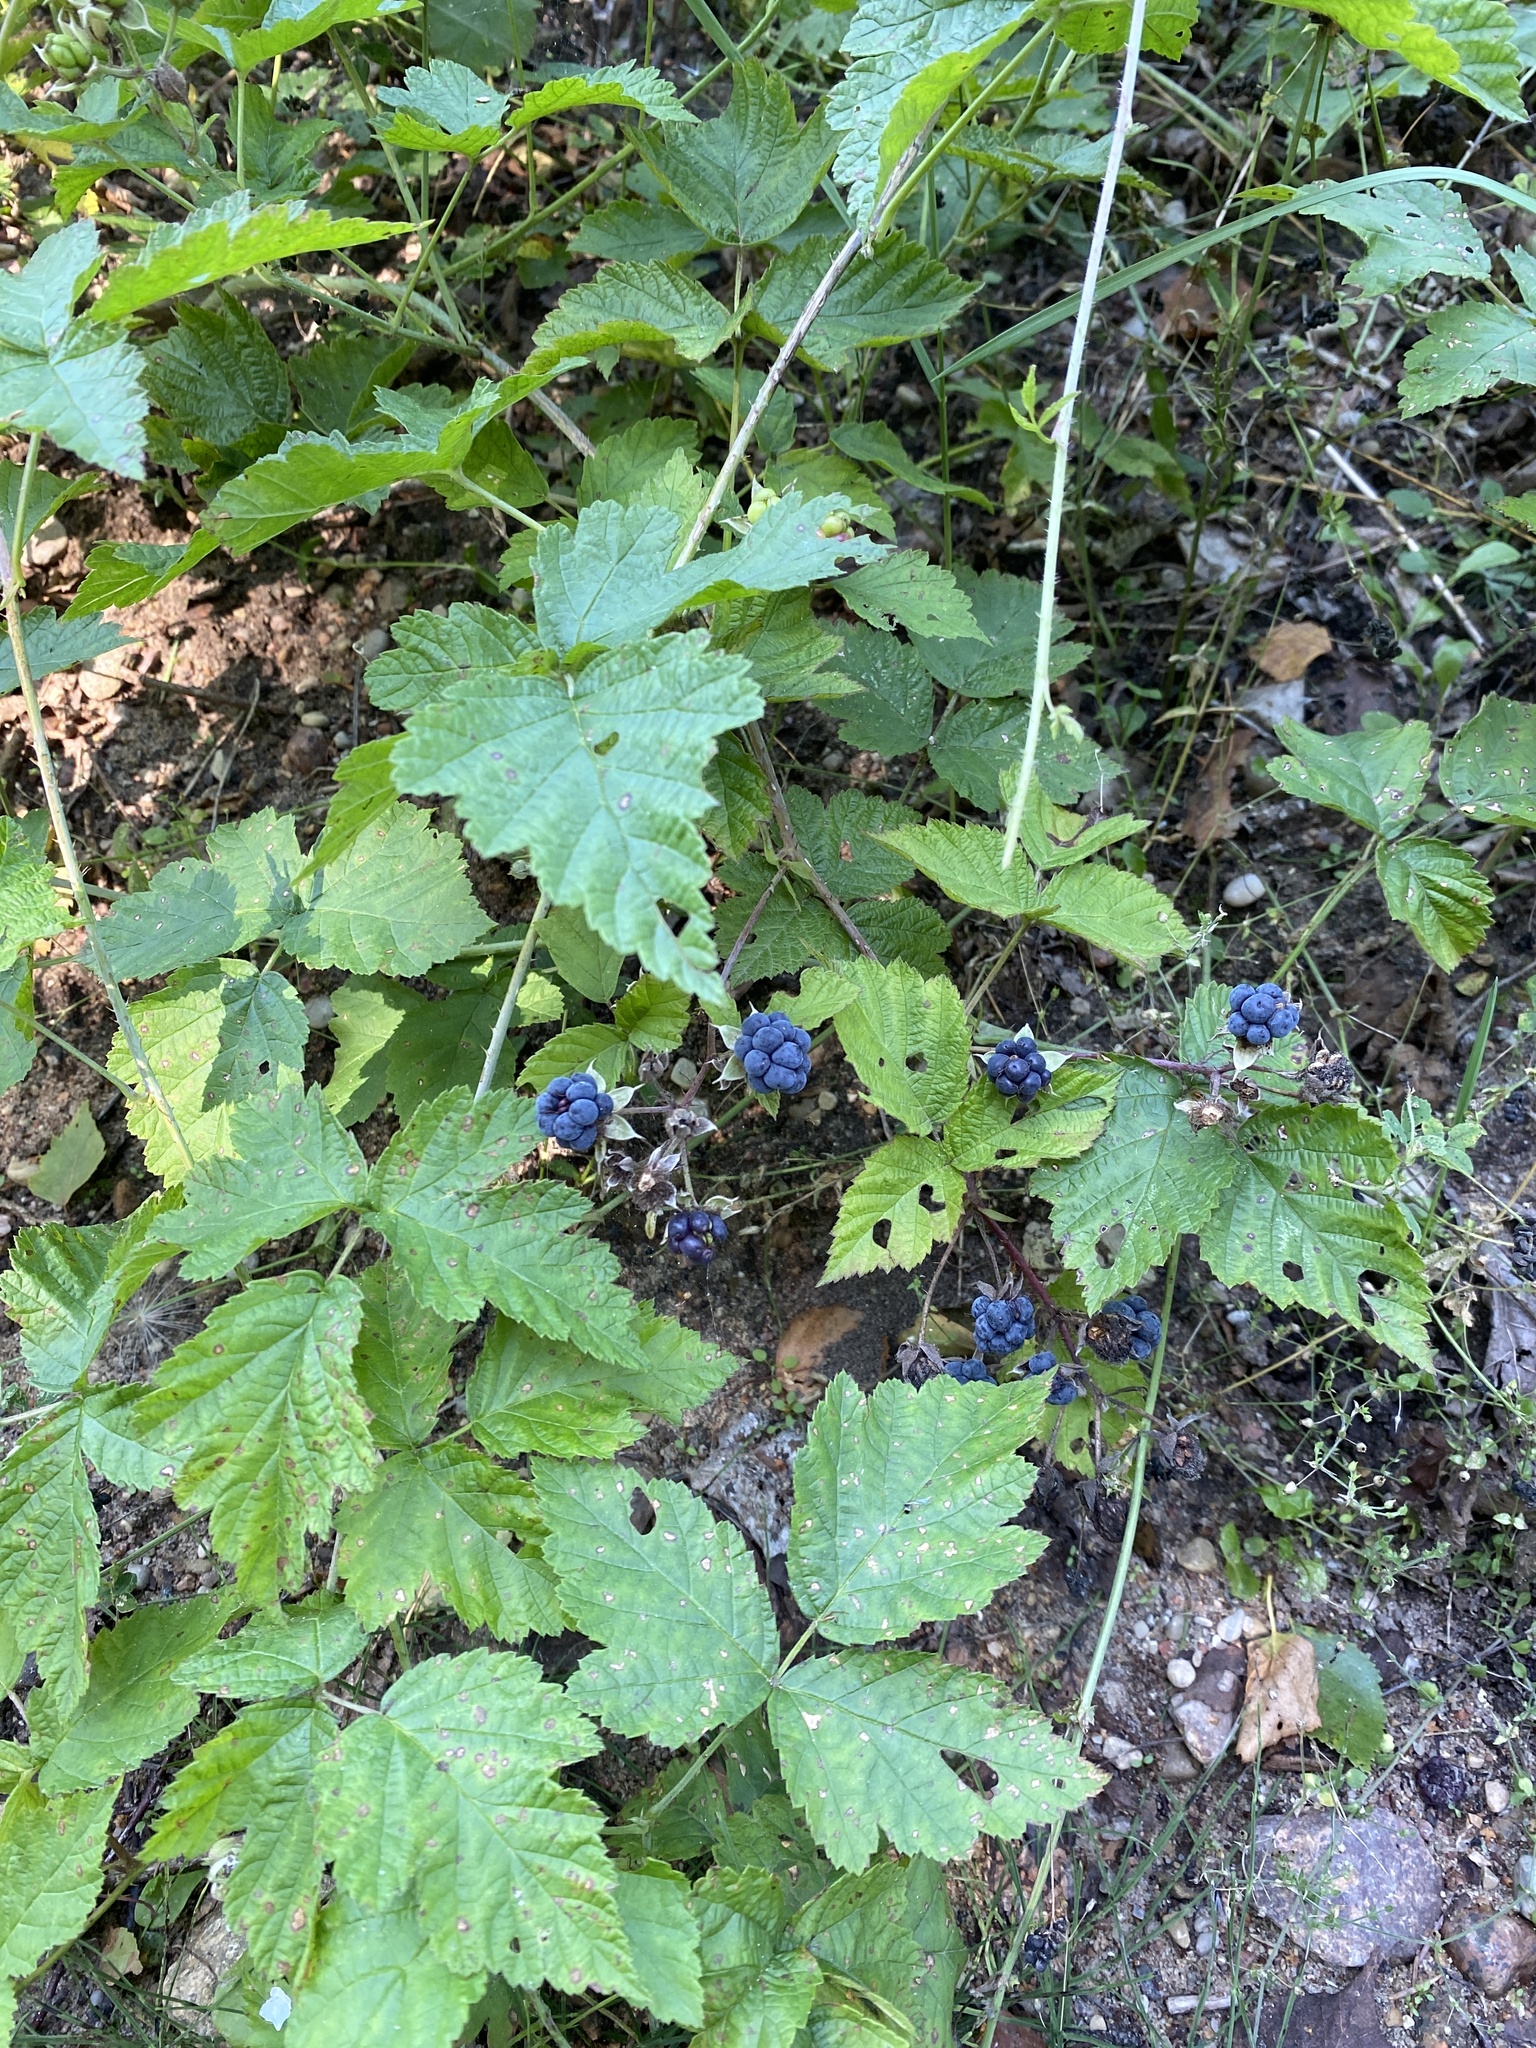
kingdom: Plantae
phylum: Tracheophyta
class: Magnoliopsida
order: Rosales
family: Rosaceae
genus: Rubus
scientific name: Rubus caesius
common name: Dewberry
